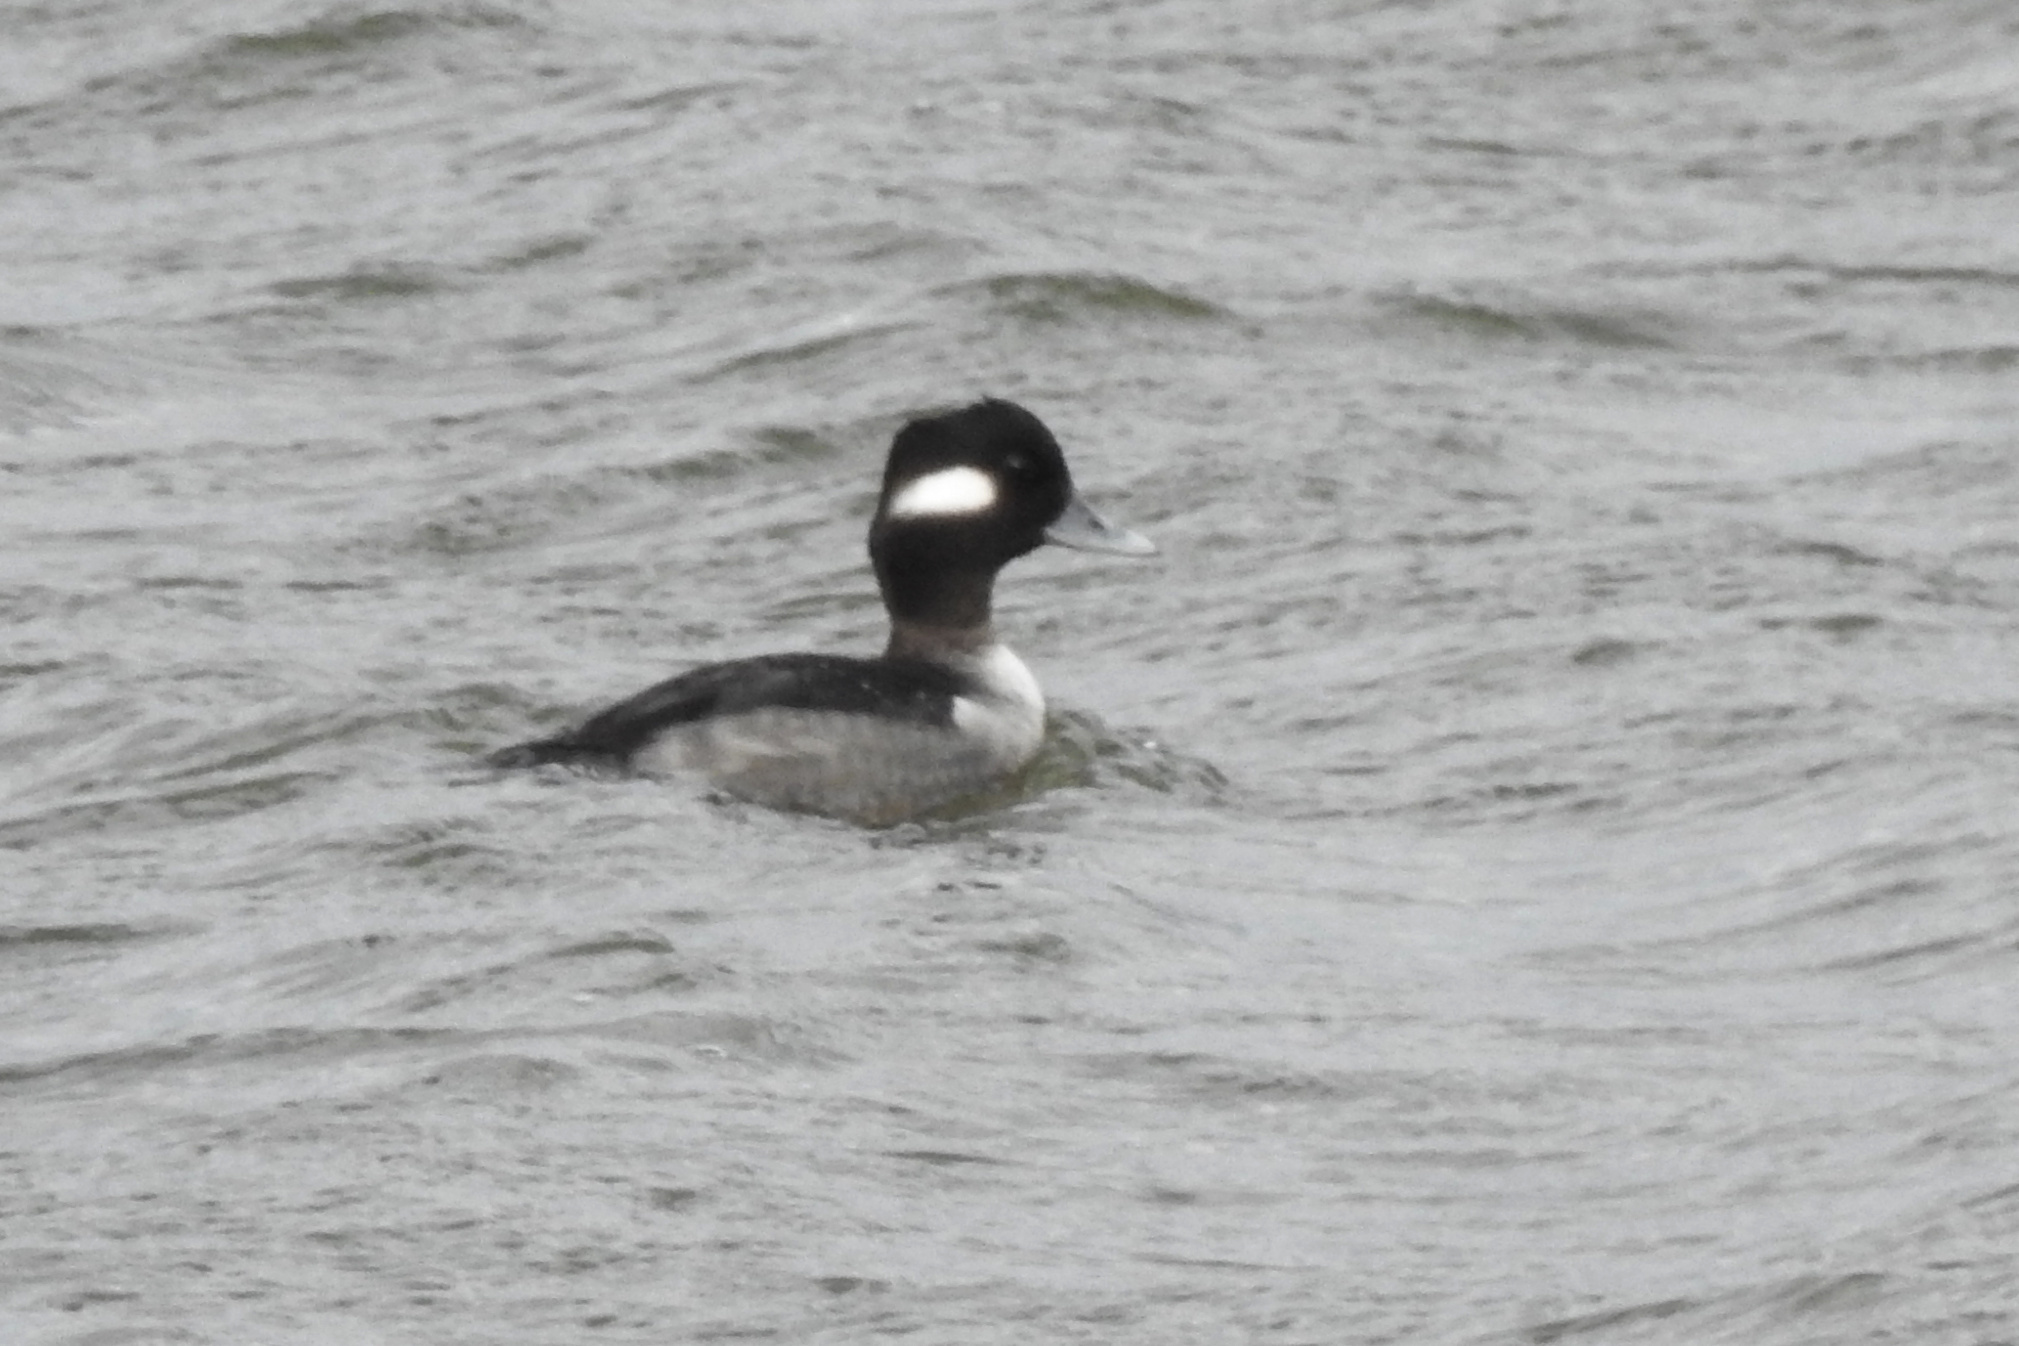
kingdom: Animalia
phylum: Chordata
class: Aves
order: Anseriformes
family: Anatidae
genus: Bucephala
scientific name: Bucephala albeola
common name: Bufflehead
